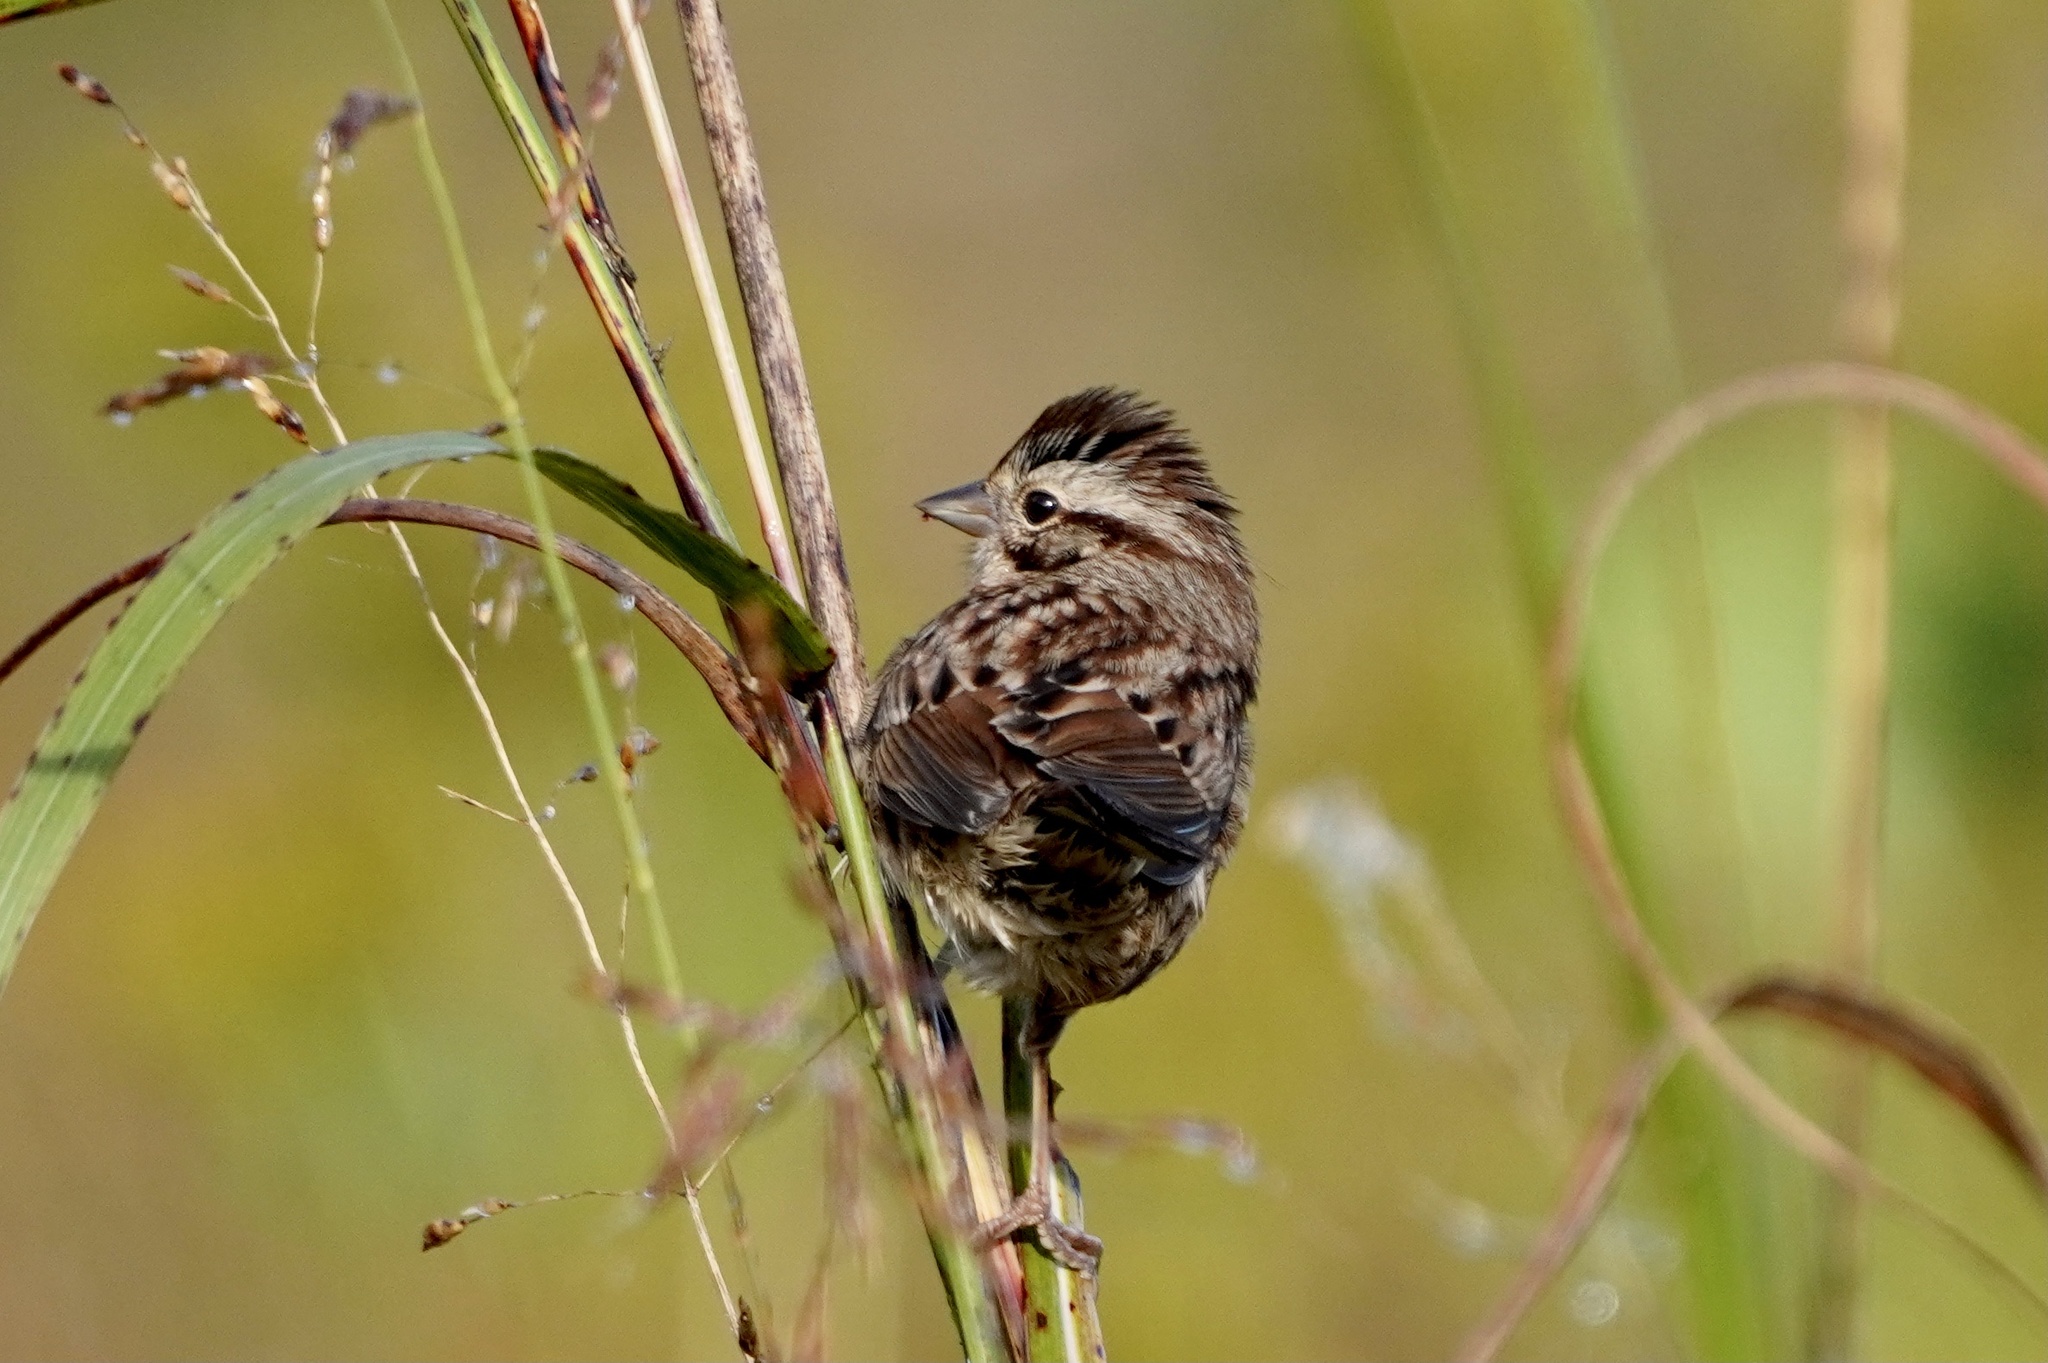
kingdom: Animalia
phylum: Chordata
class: Aves
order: Passeriformes
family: Passerellidae
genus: Melospiza
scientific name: Melospiza melodia
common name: Song sparrow
